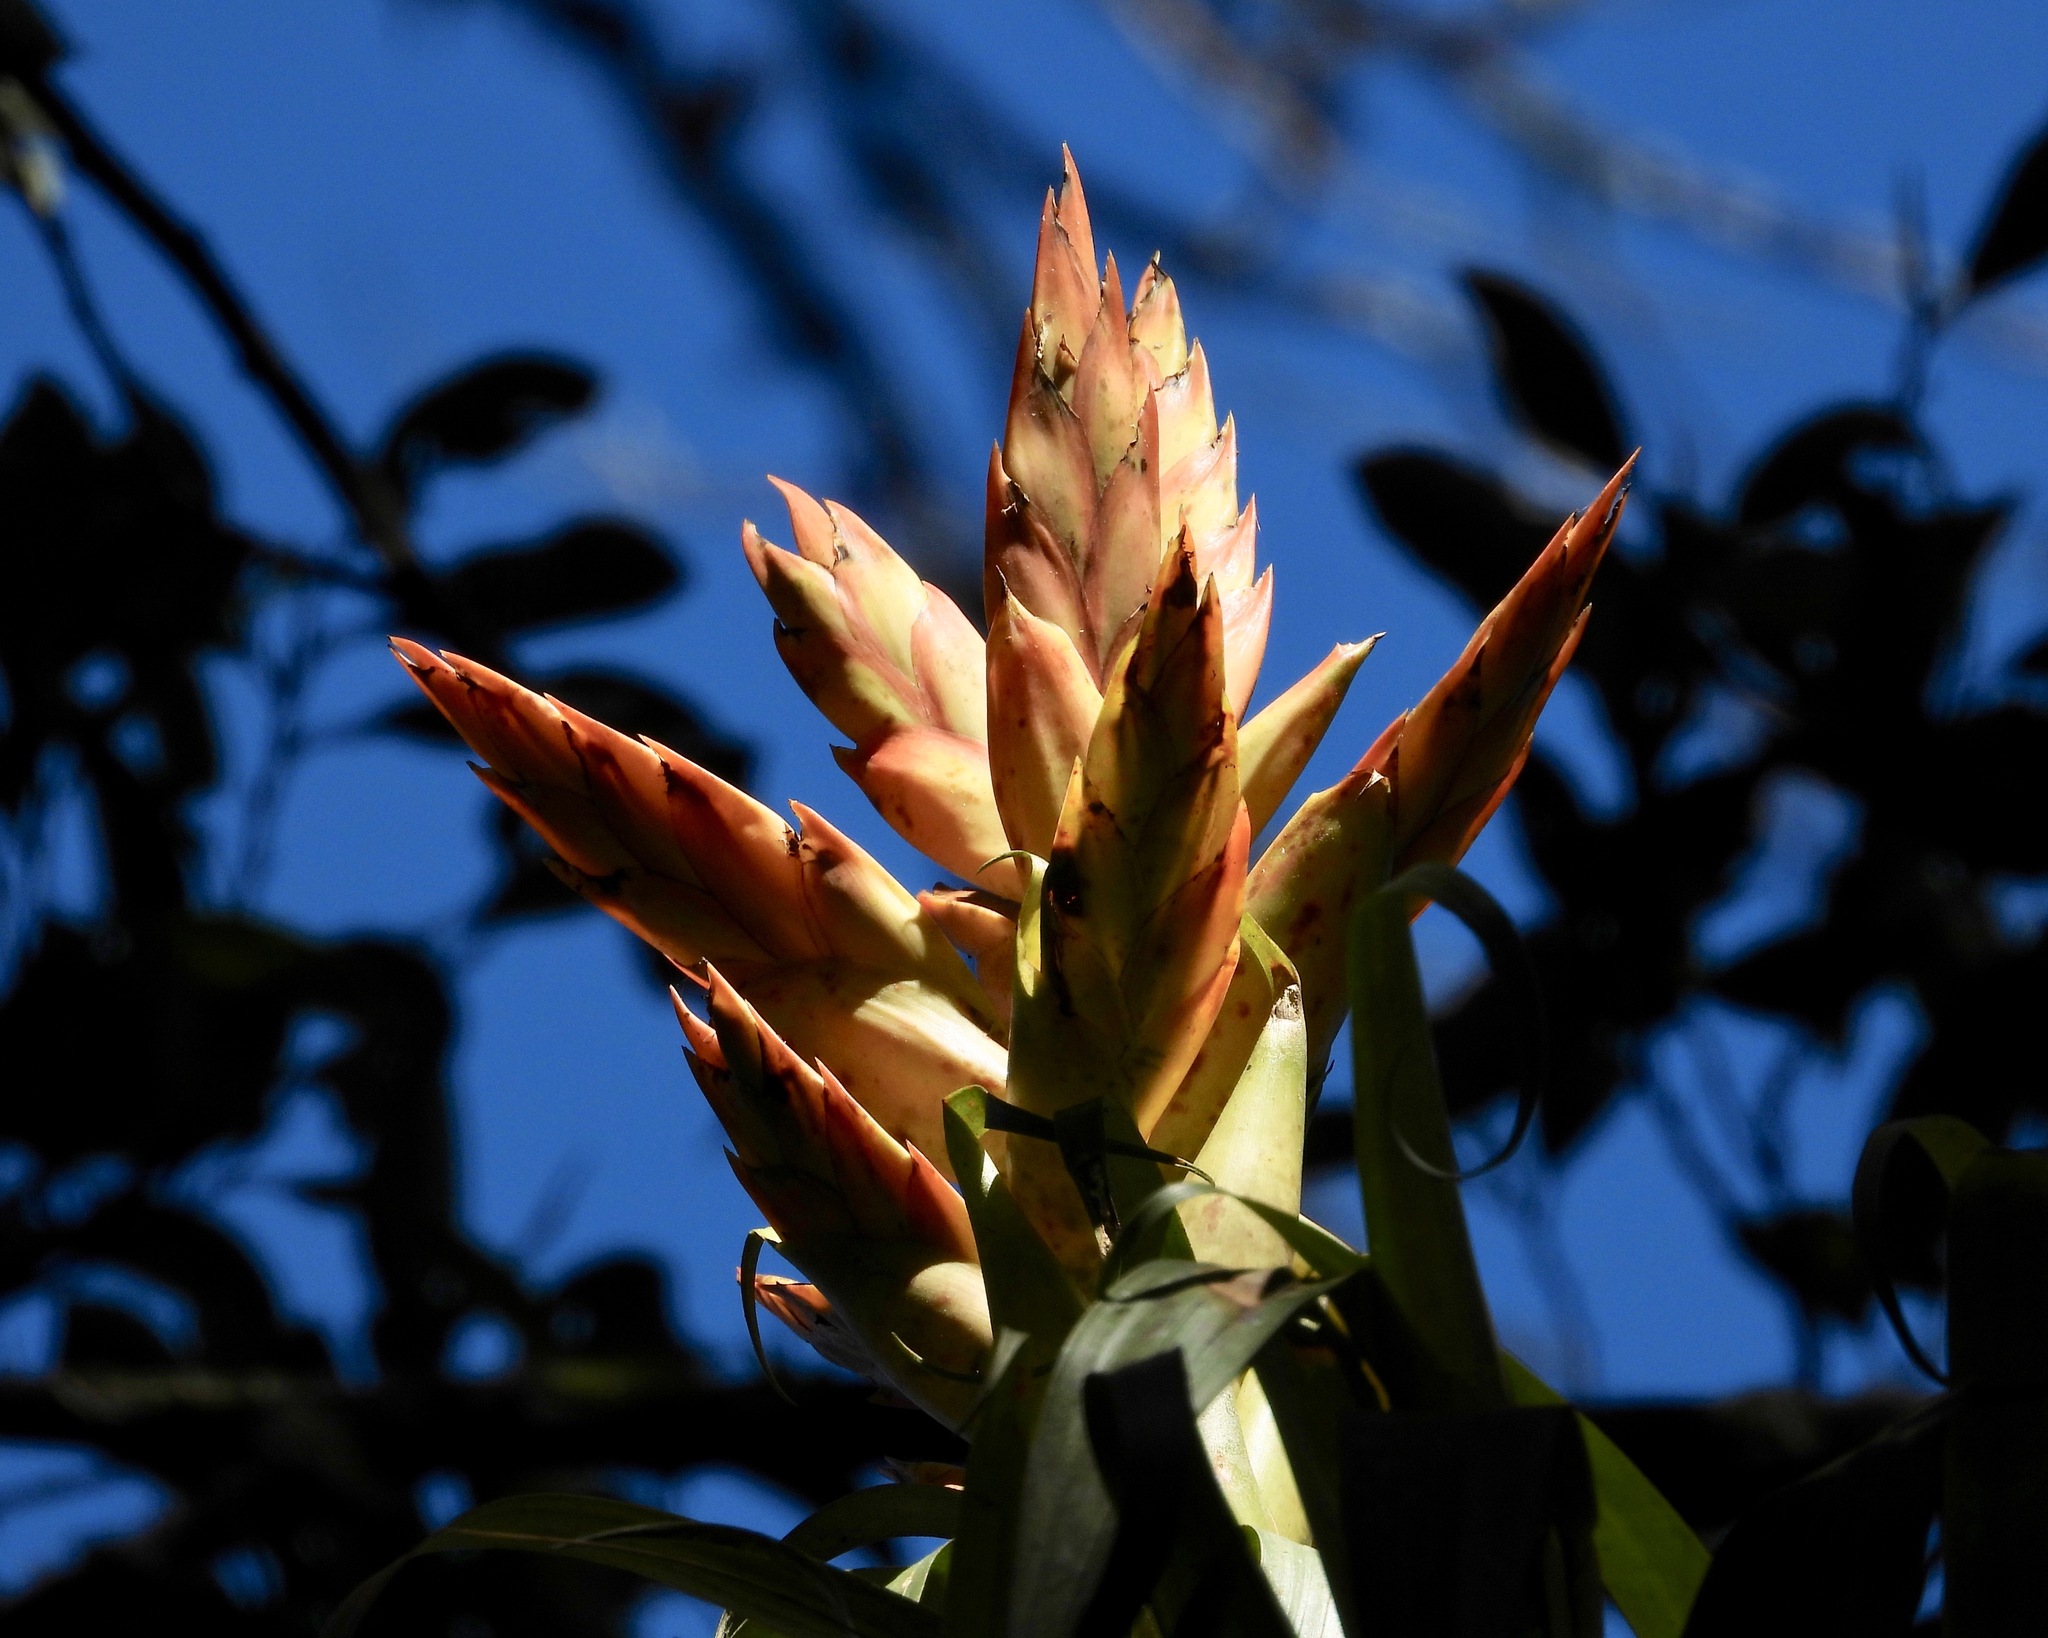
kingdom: Plantae
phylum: Tracheophyta
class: Liliopsida
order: Poales
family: Bromeliaceae
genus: Tillandsia
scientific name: Tillandsia ponderosa
